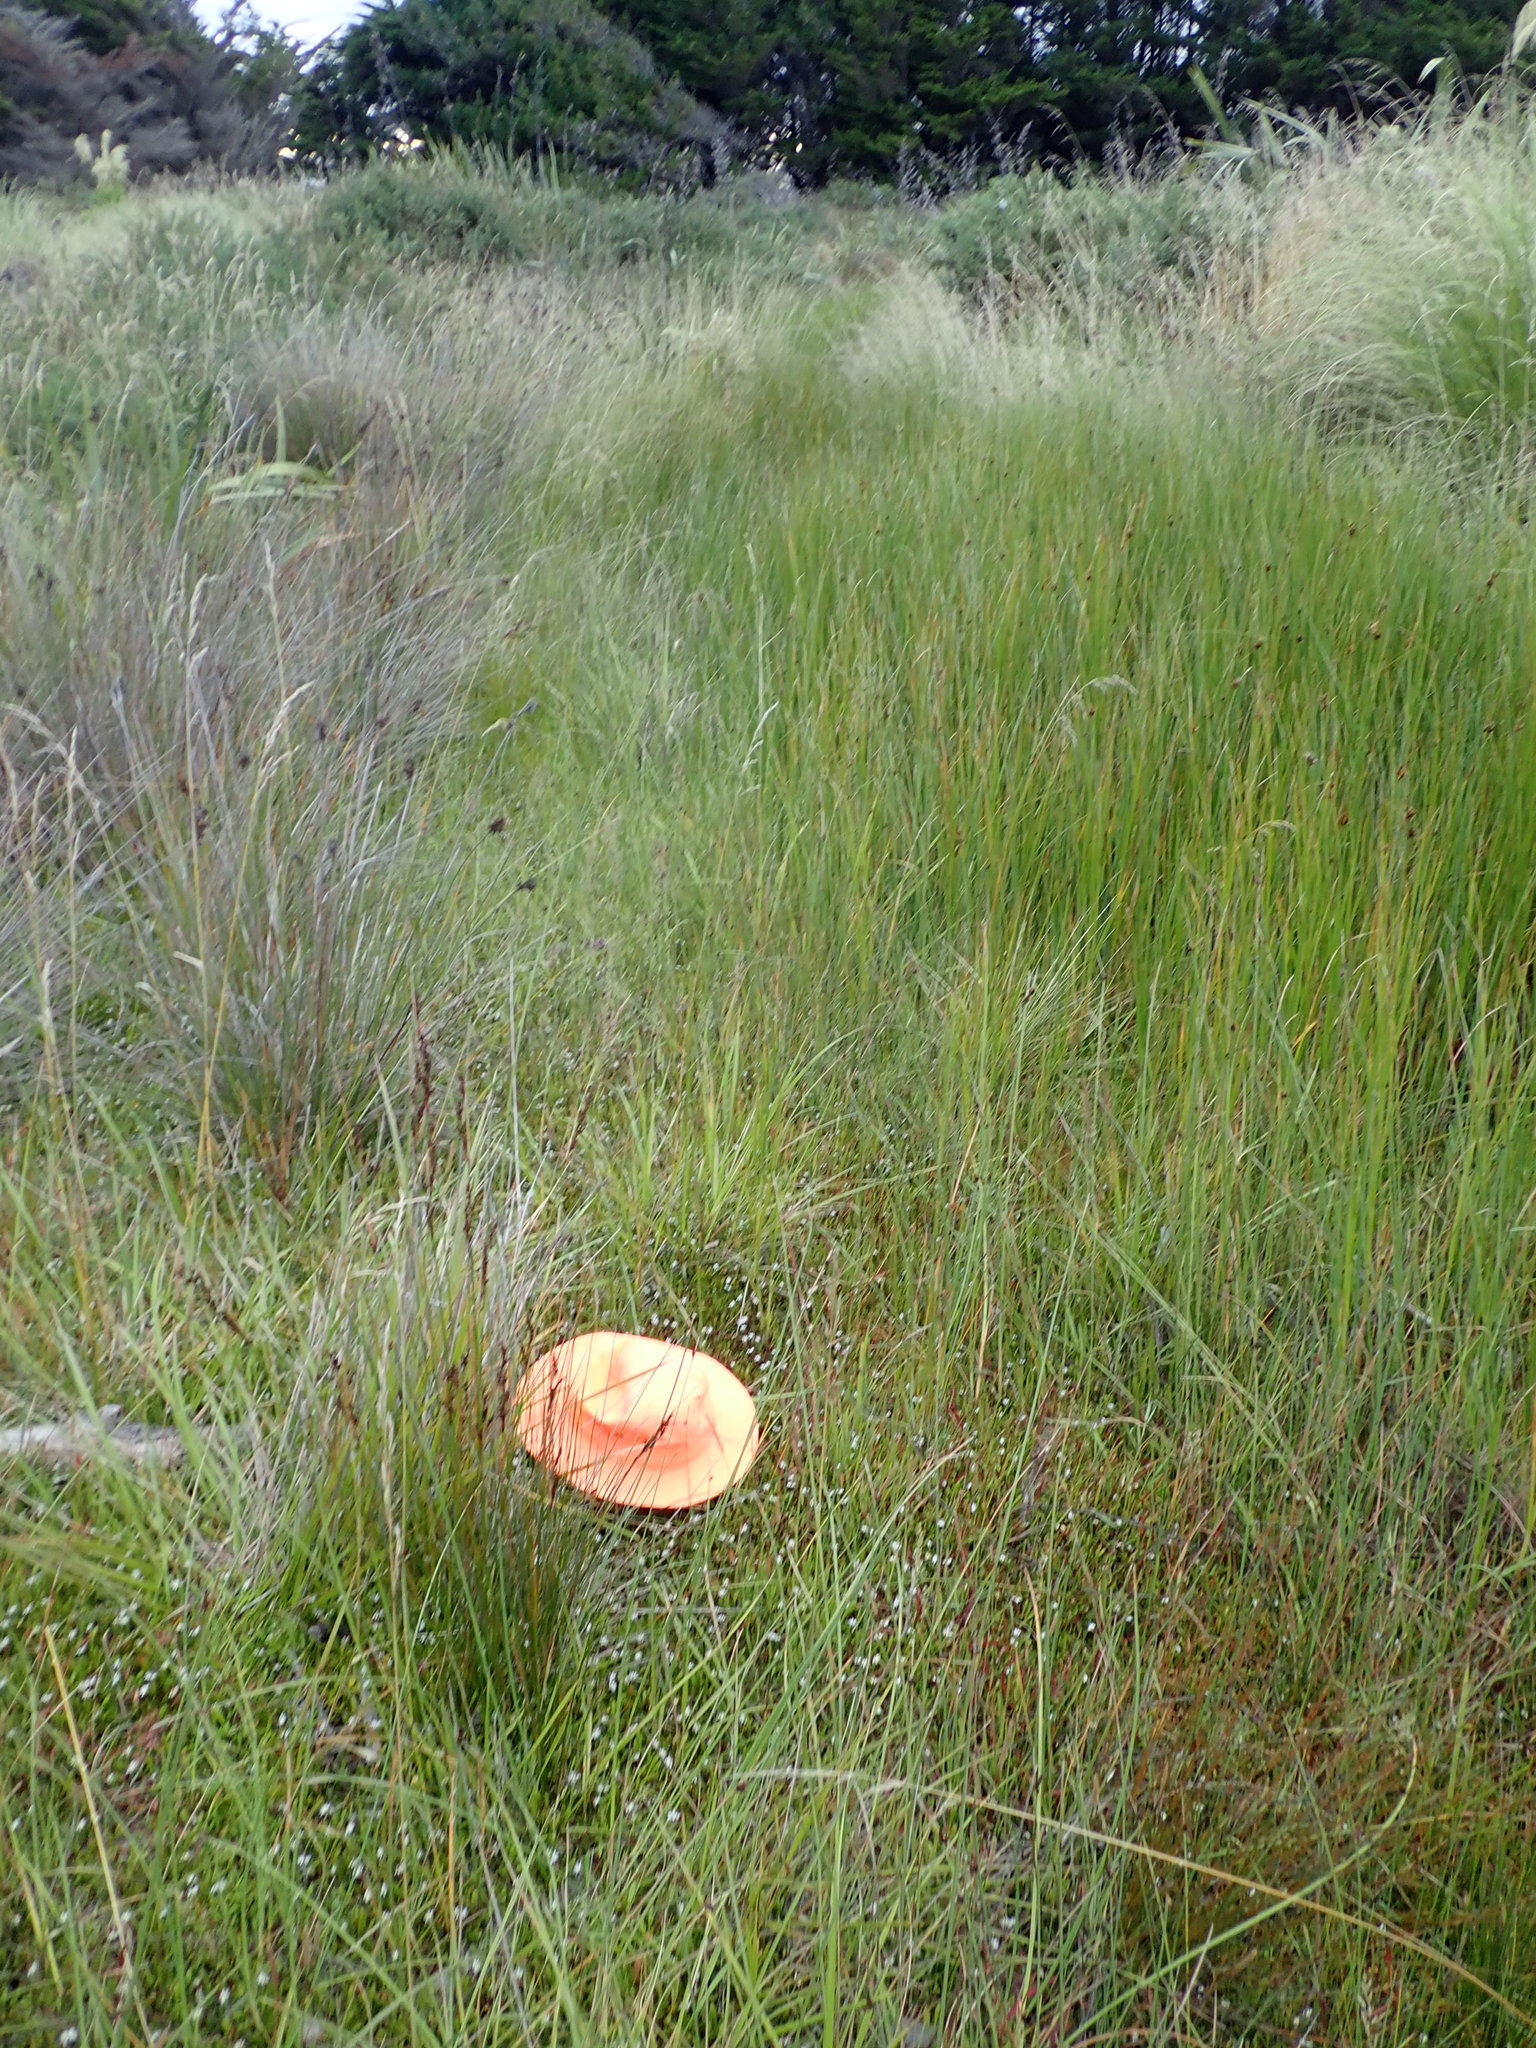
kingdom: Plantae
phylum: Tracheophyta
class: Magnoliopsida
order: Asterales
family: Goodeniaceae
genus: Goodenia
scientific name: Goodenia radicans
